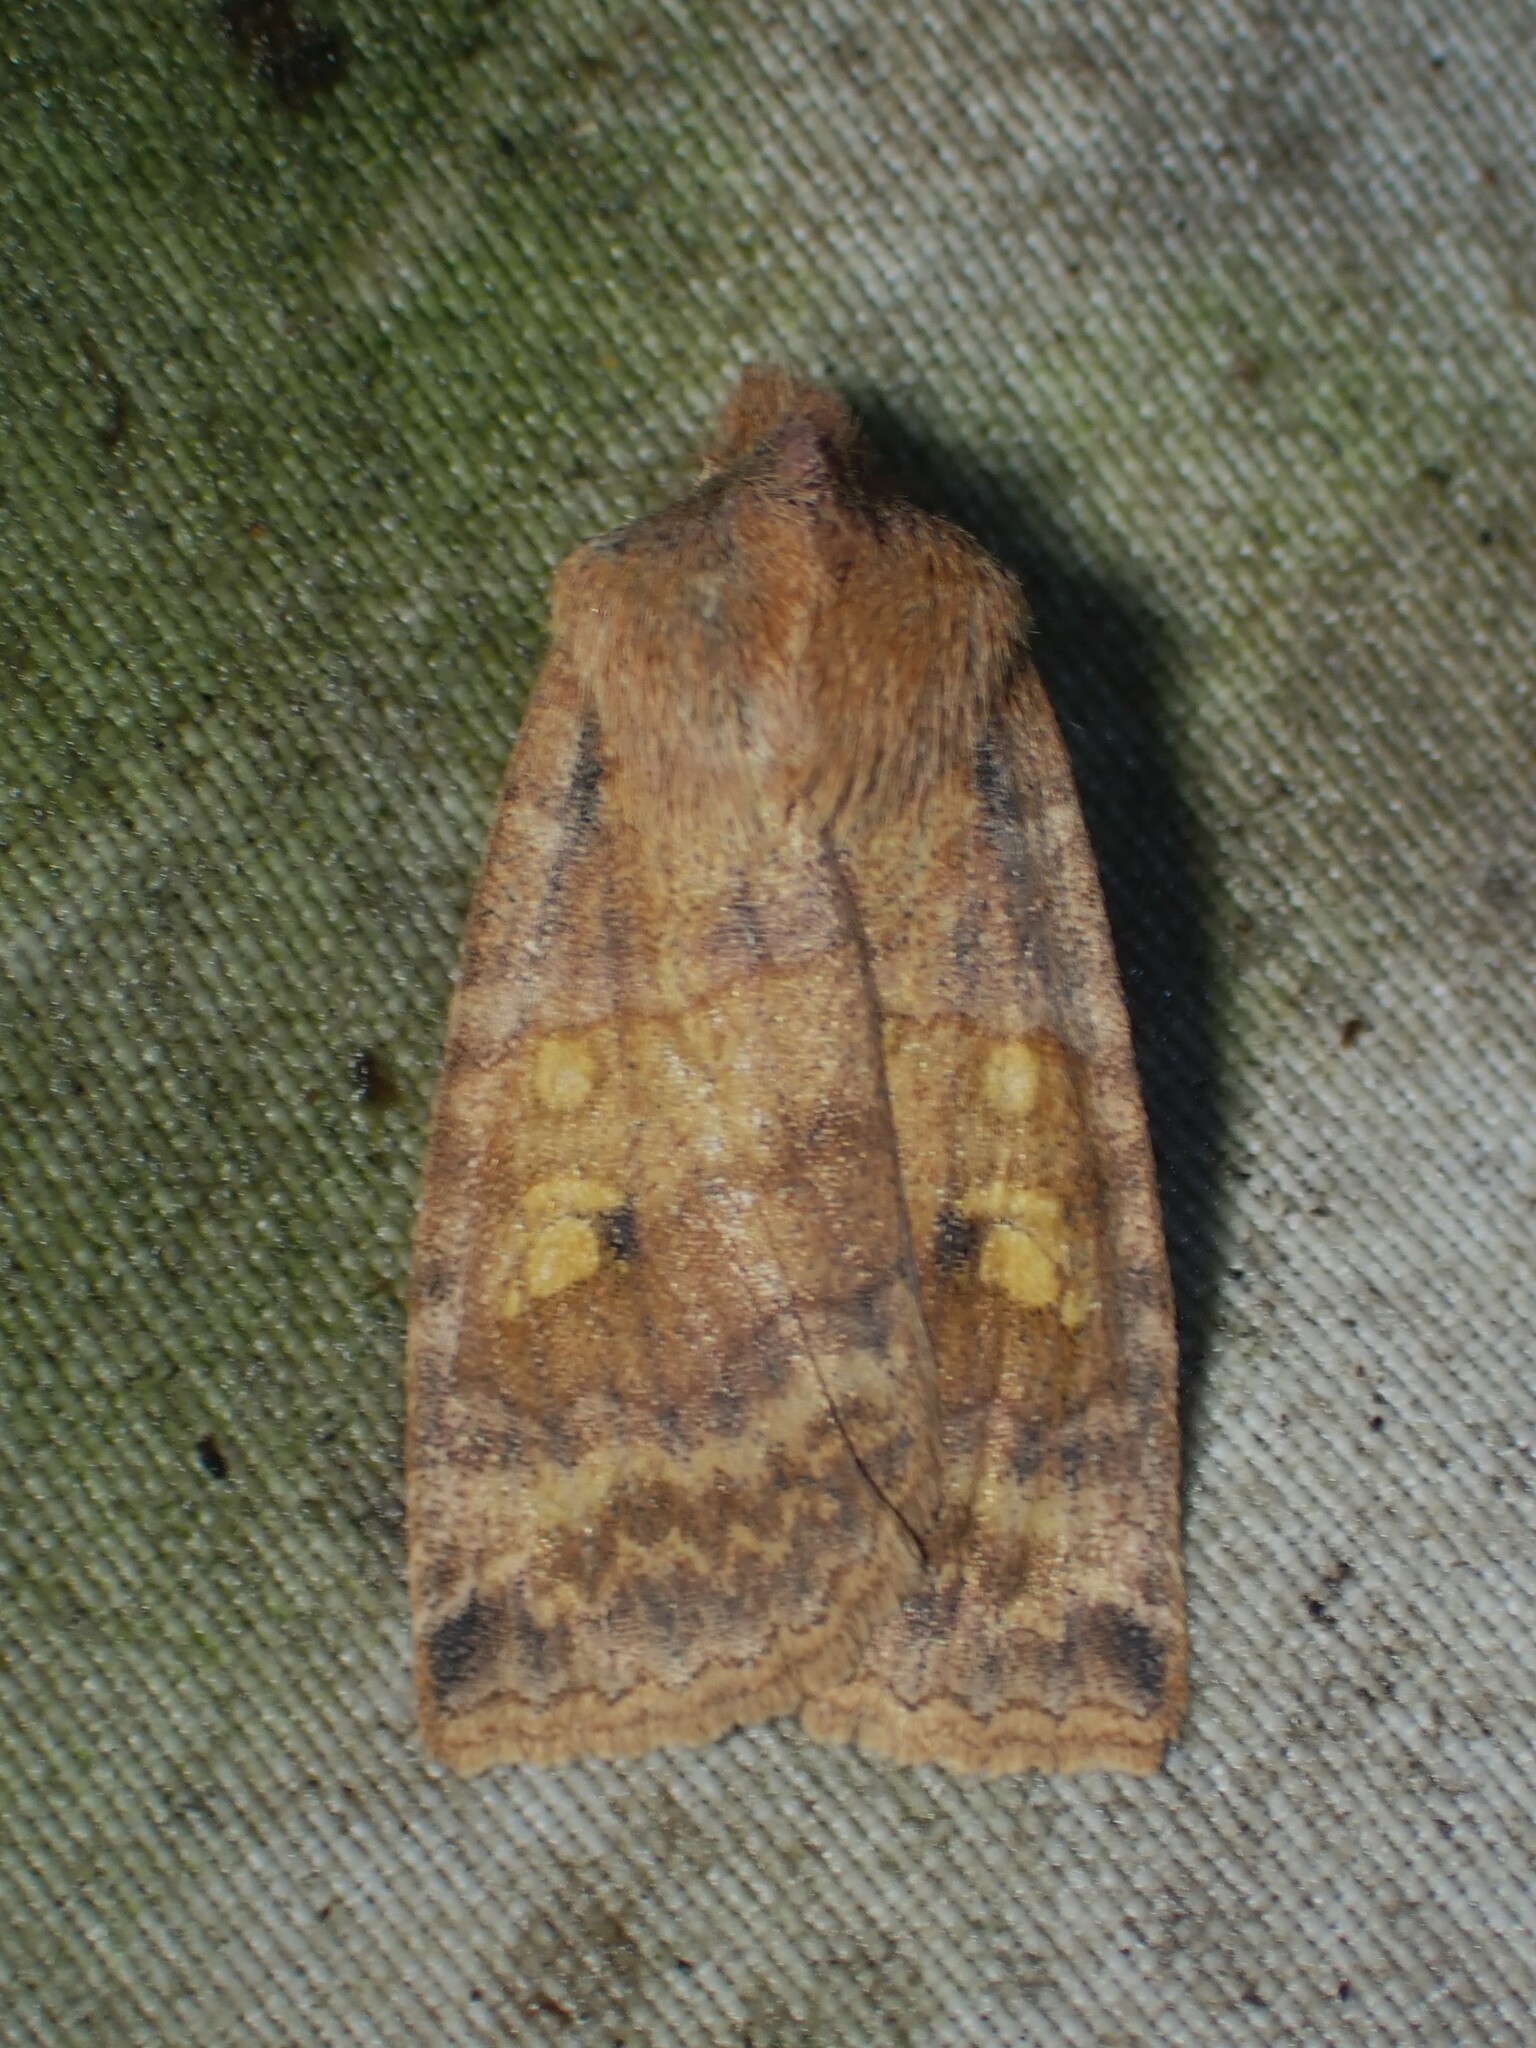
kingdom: Animalia
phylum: Arthropoda
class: Insecta
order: Lepidoptera
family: Noctuidae
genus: Eupsilia
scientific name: Eupsilia tristigmata
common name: Three-spotted sallow
